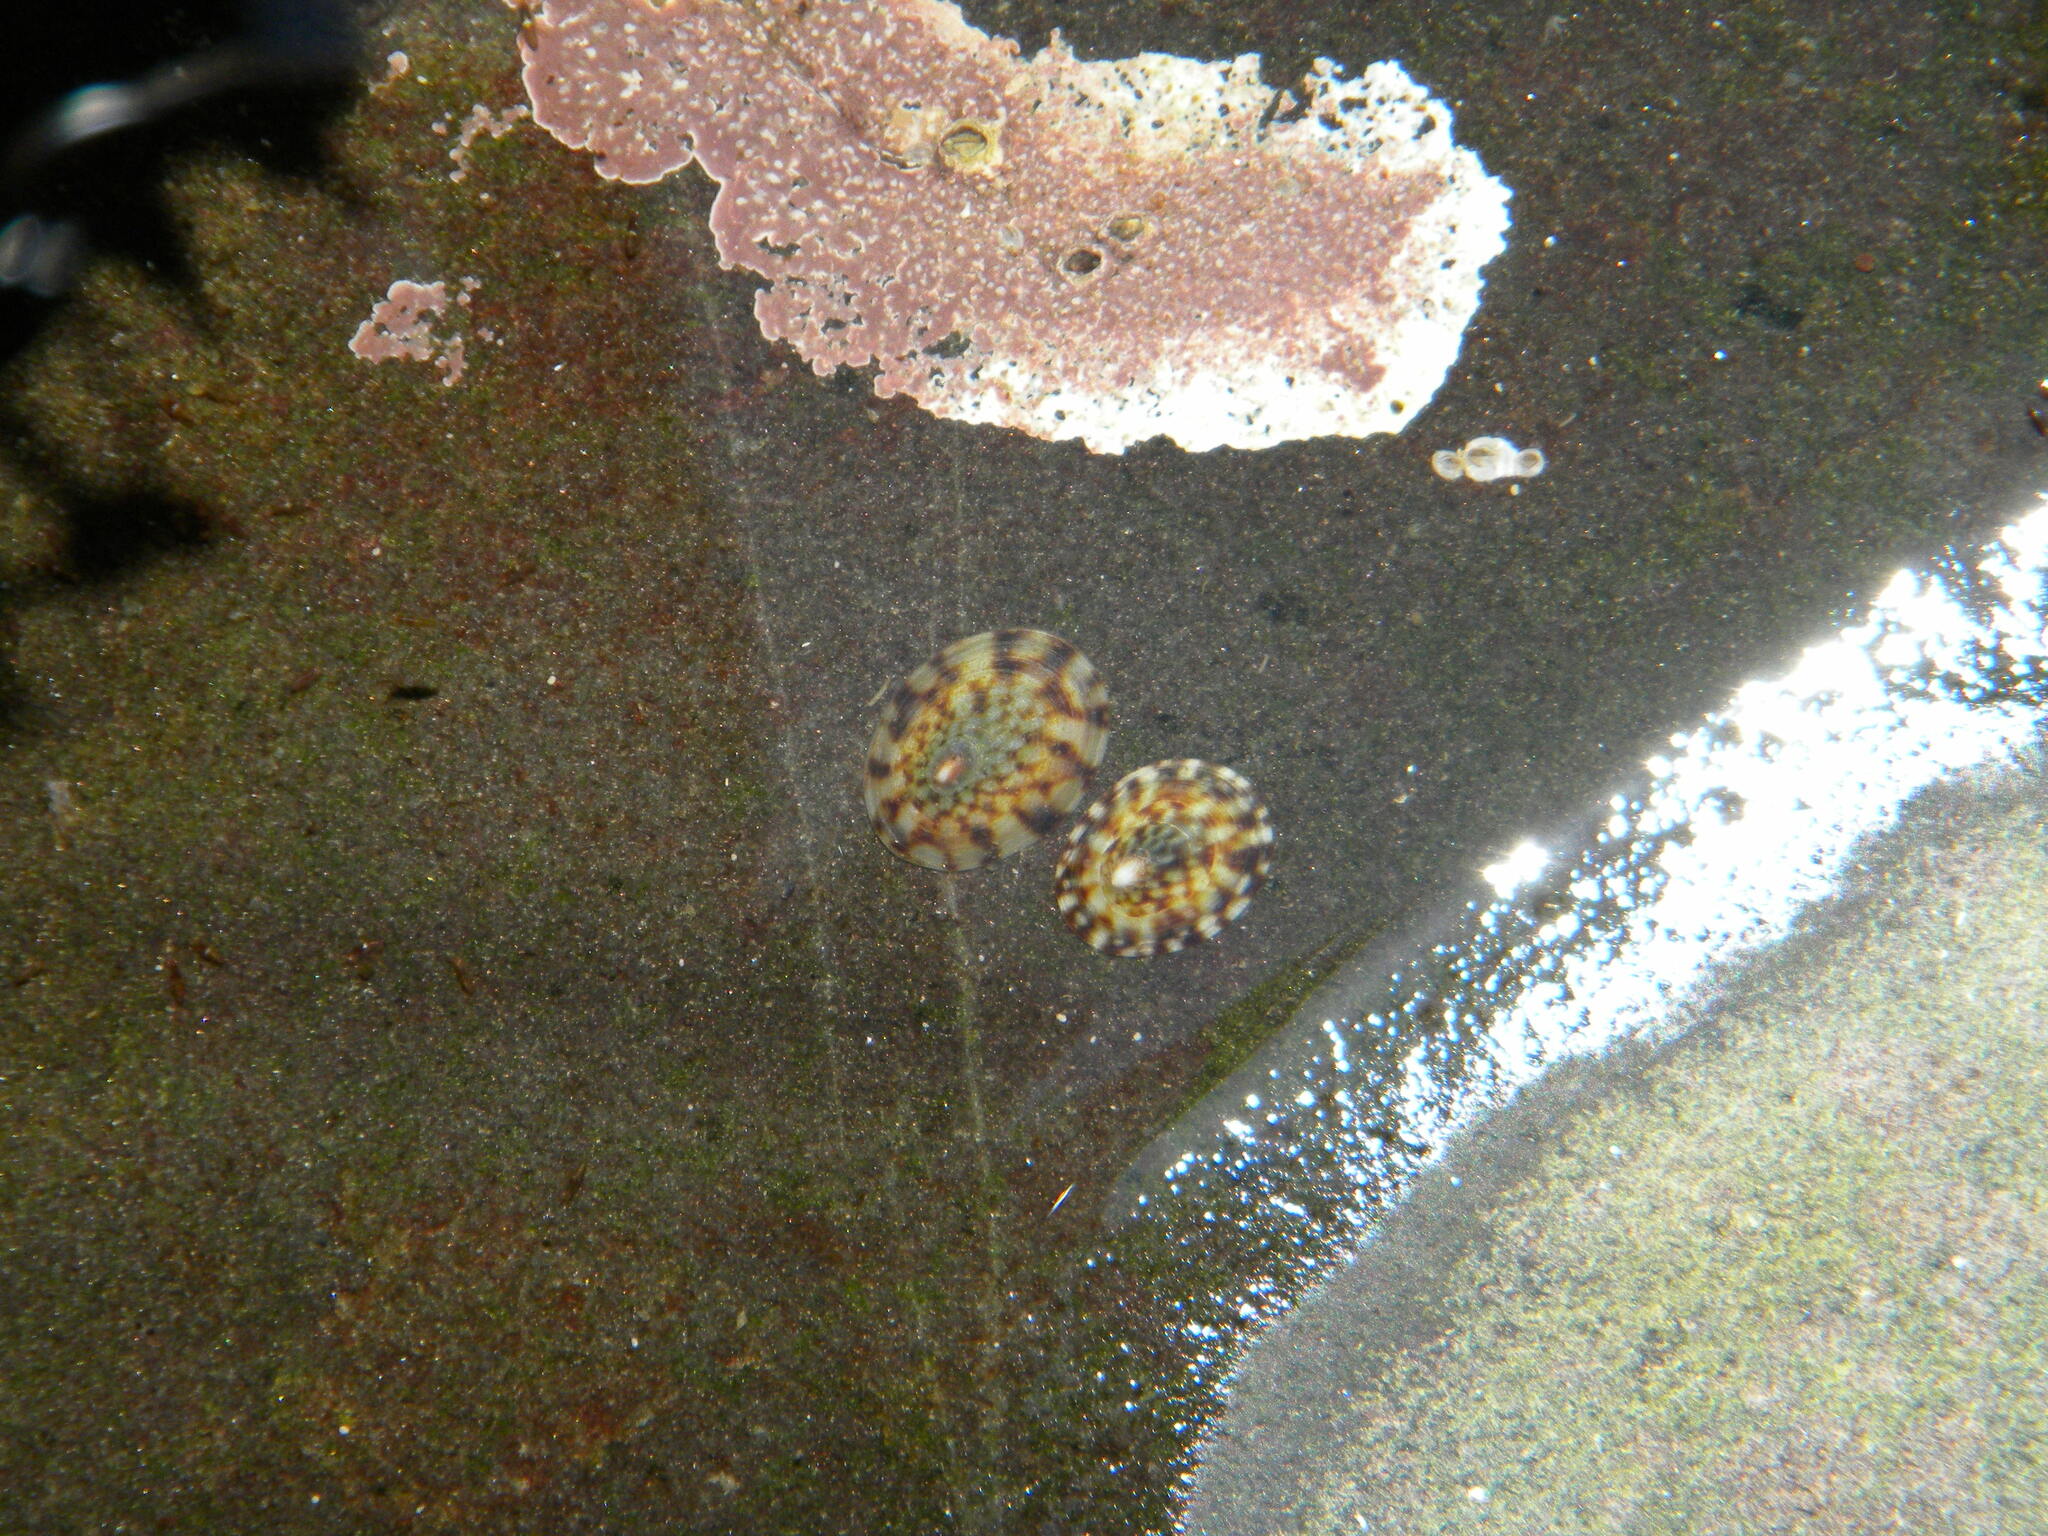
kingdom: Animalia
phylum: Mollusca
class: Gastropoda
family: Lottiidae
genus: Testudinalia
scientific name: Testudinalia testudinalis
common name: Common tortoiseshell limpet
